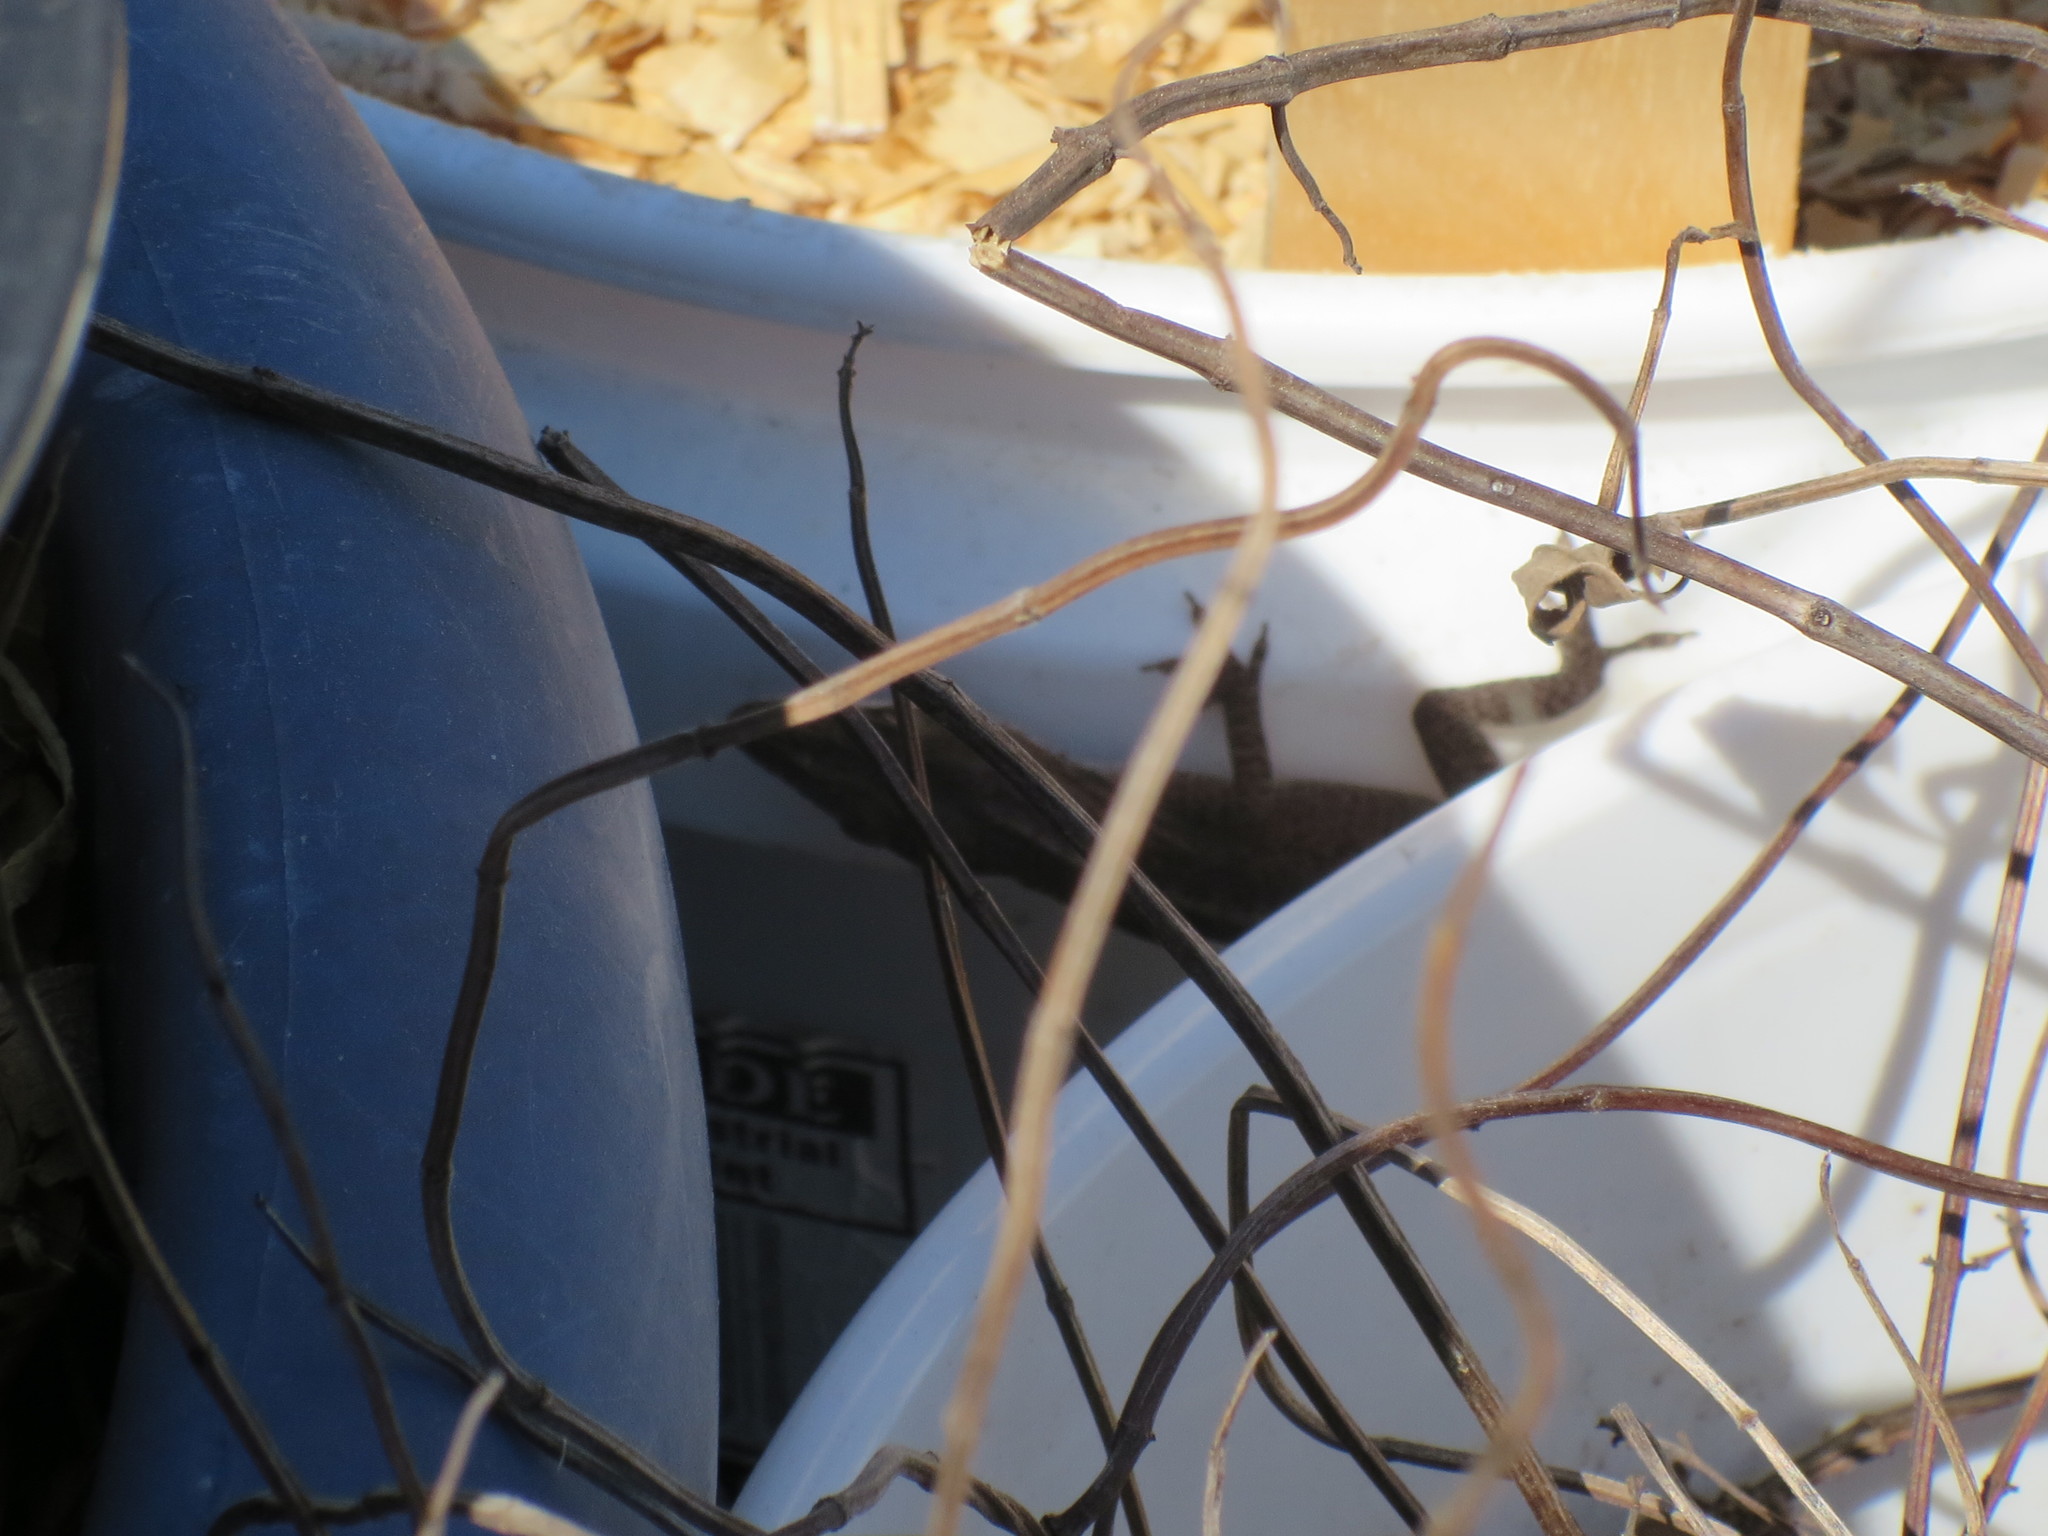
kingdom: Animalia
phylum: Chordata
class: Squamata
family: Dactyloidae
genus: Anolis
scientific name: Anolis carolinensis
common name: Green anole
